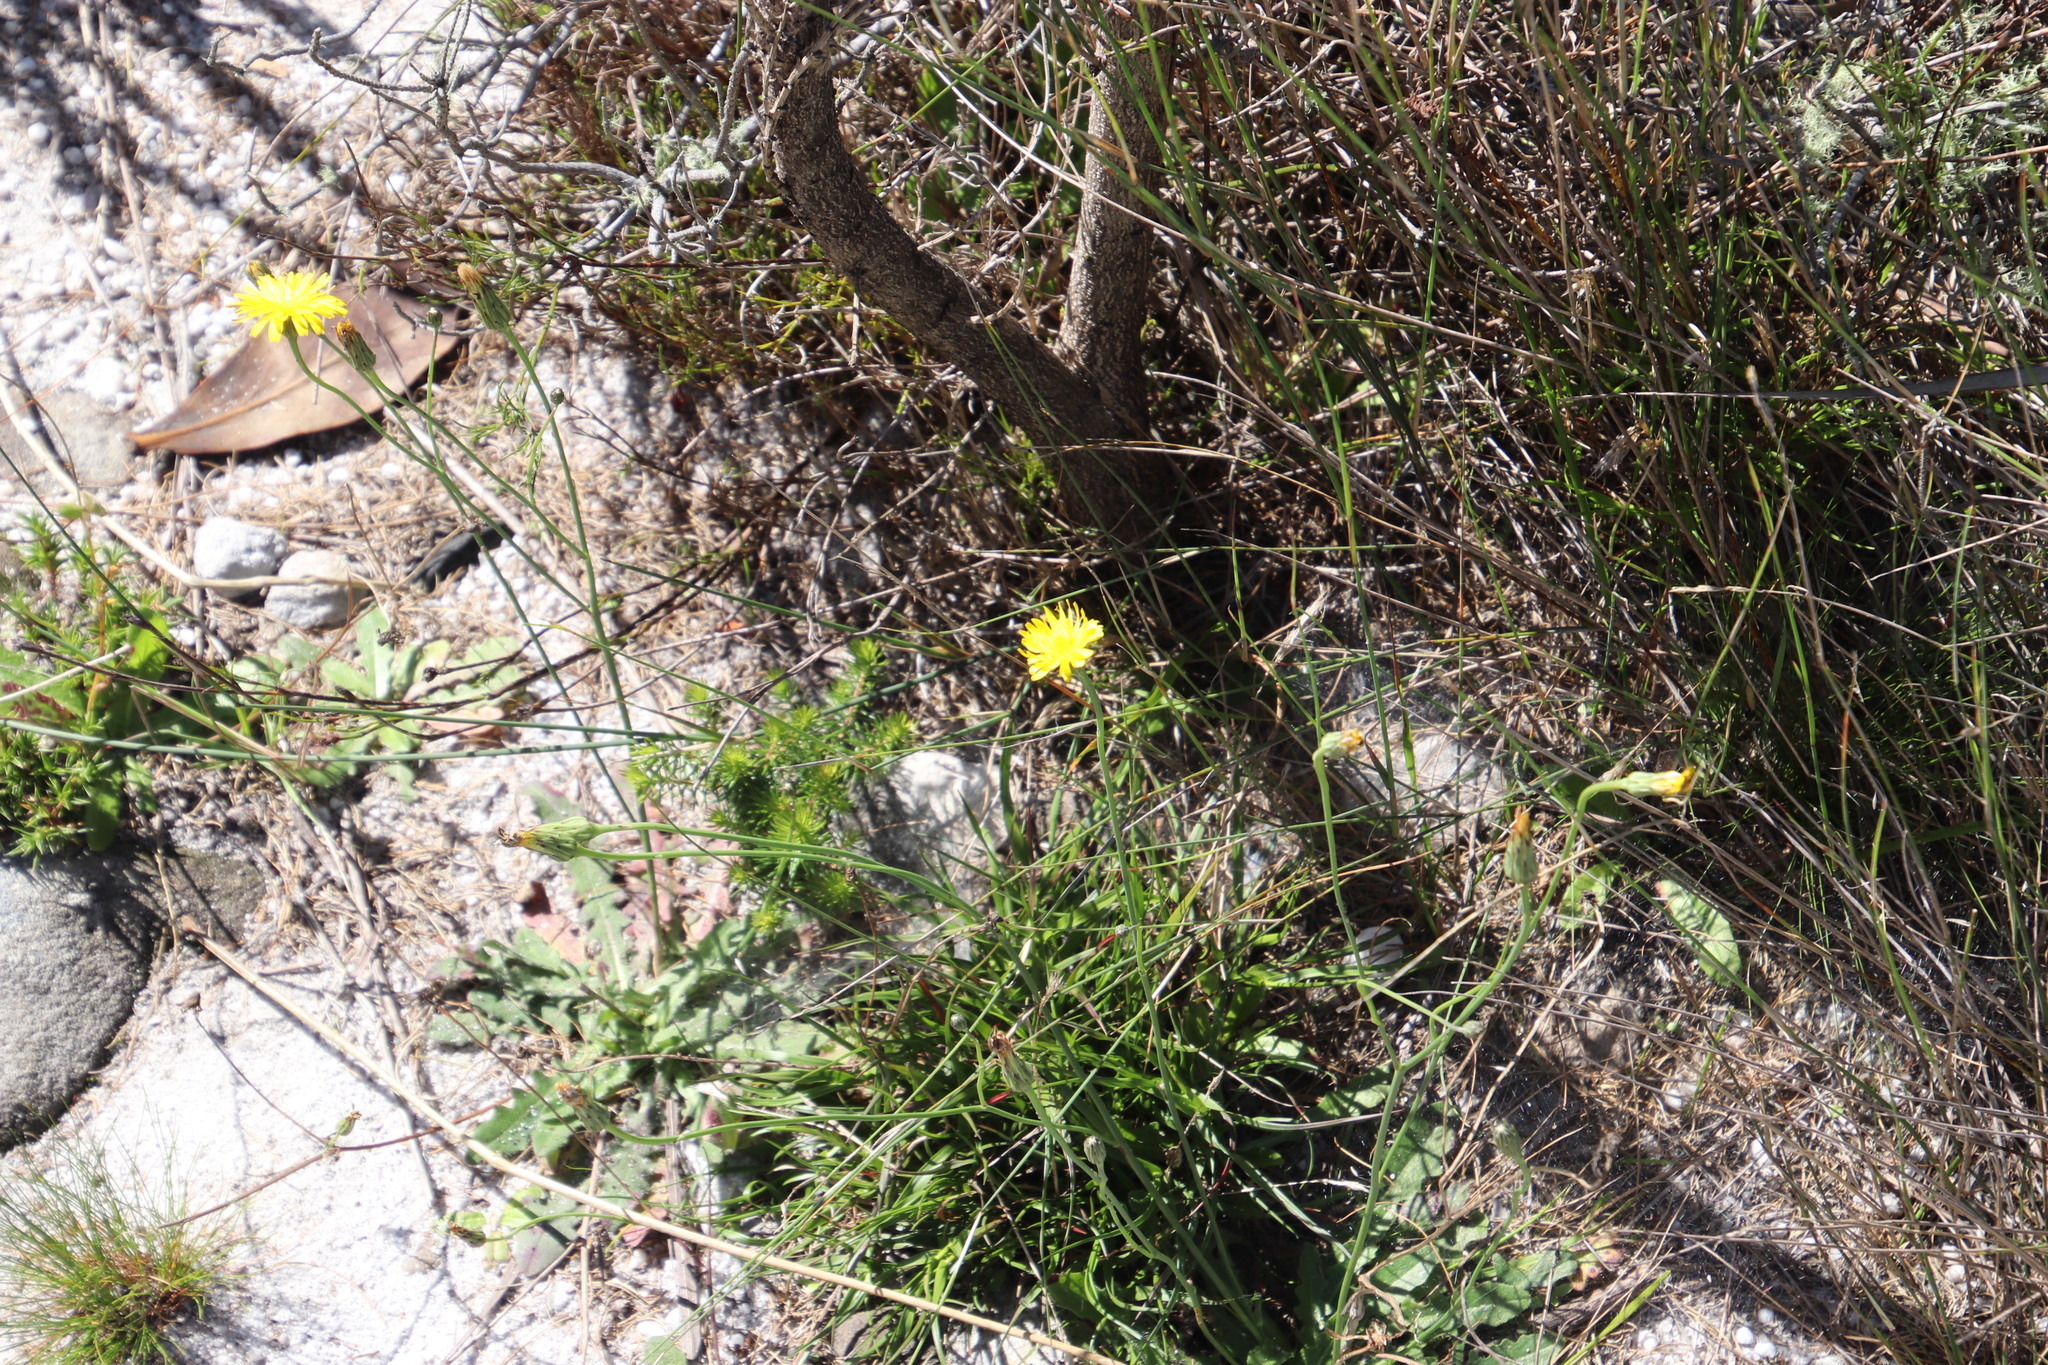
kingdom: Plantae
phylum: Tracheophyta
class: Magnoliopsida
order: Asterales
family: Asteraceae
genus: Hypochaeris
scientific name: Hypochaeris radicata
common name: Flatweed
